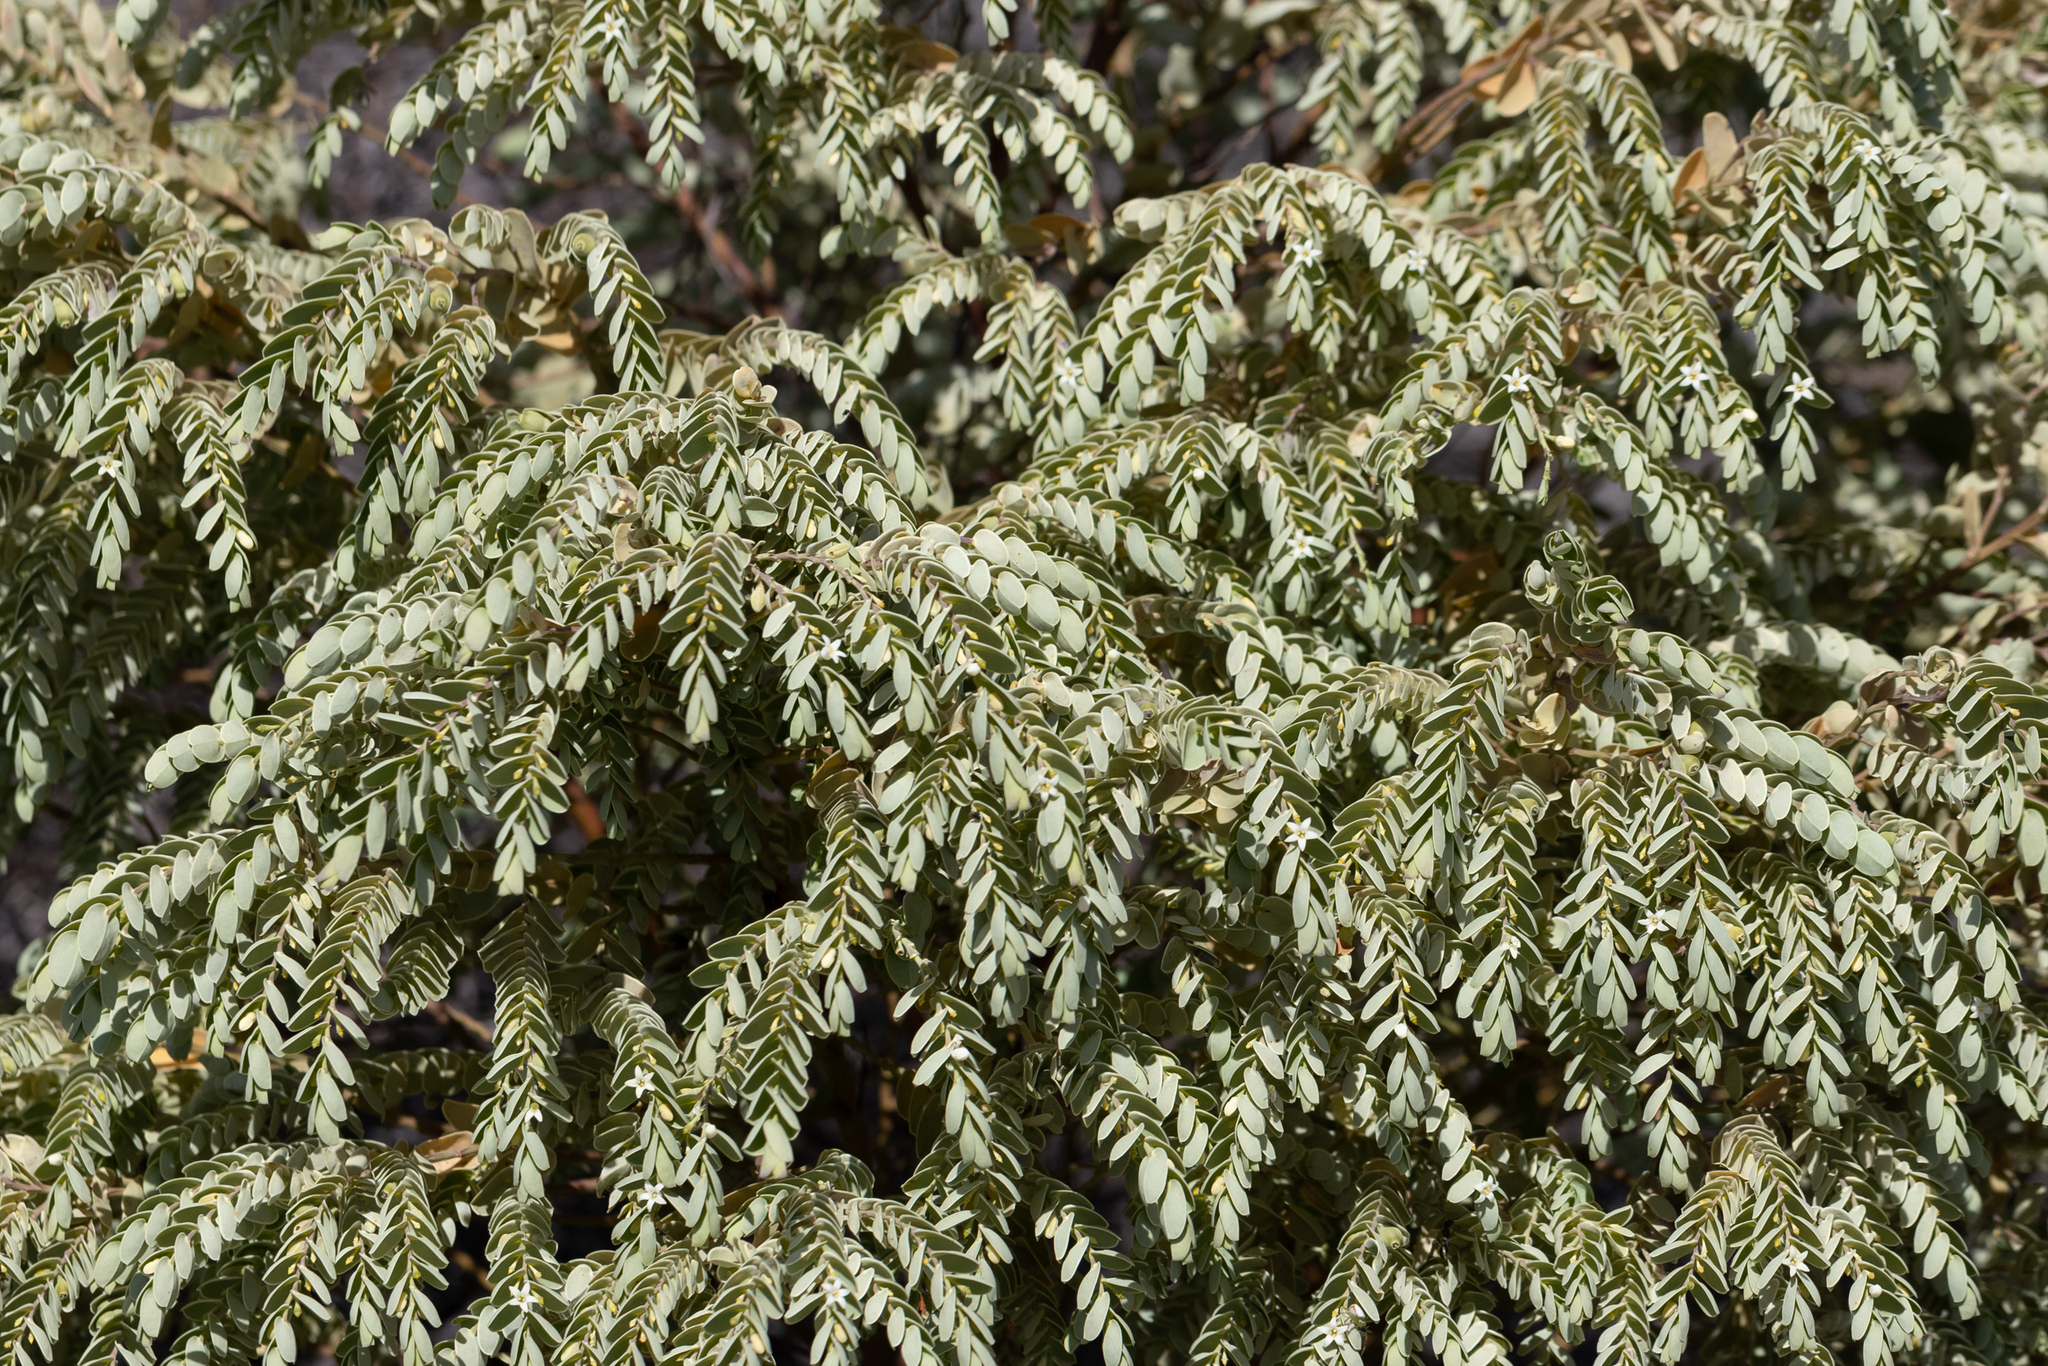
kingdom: Plantae
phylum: Tracheophyta
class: Magnoliopsida
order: Santalales
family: Olacaceae
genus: Olax
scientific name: Olax phyllanthi
